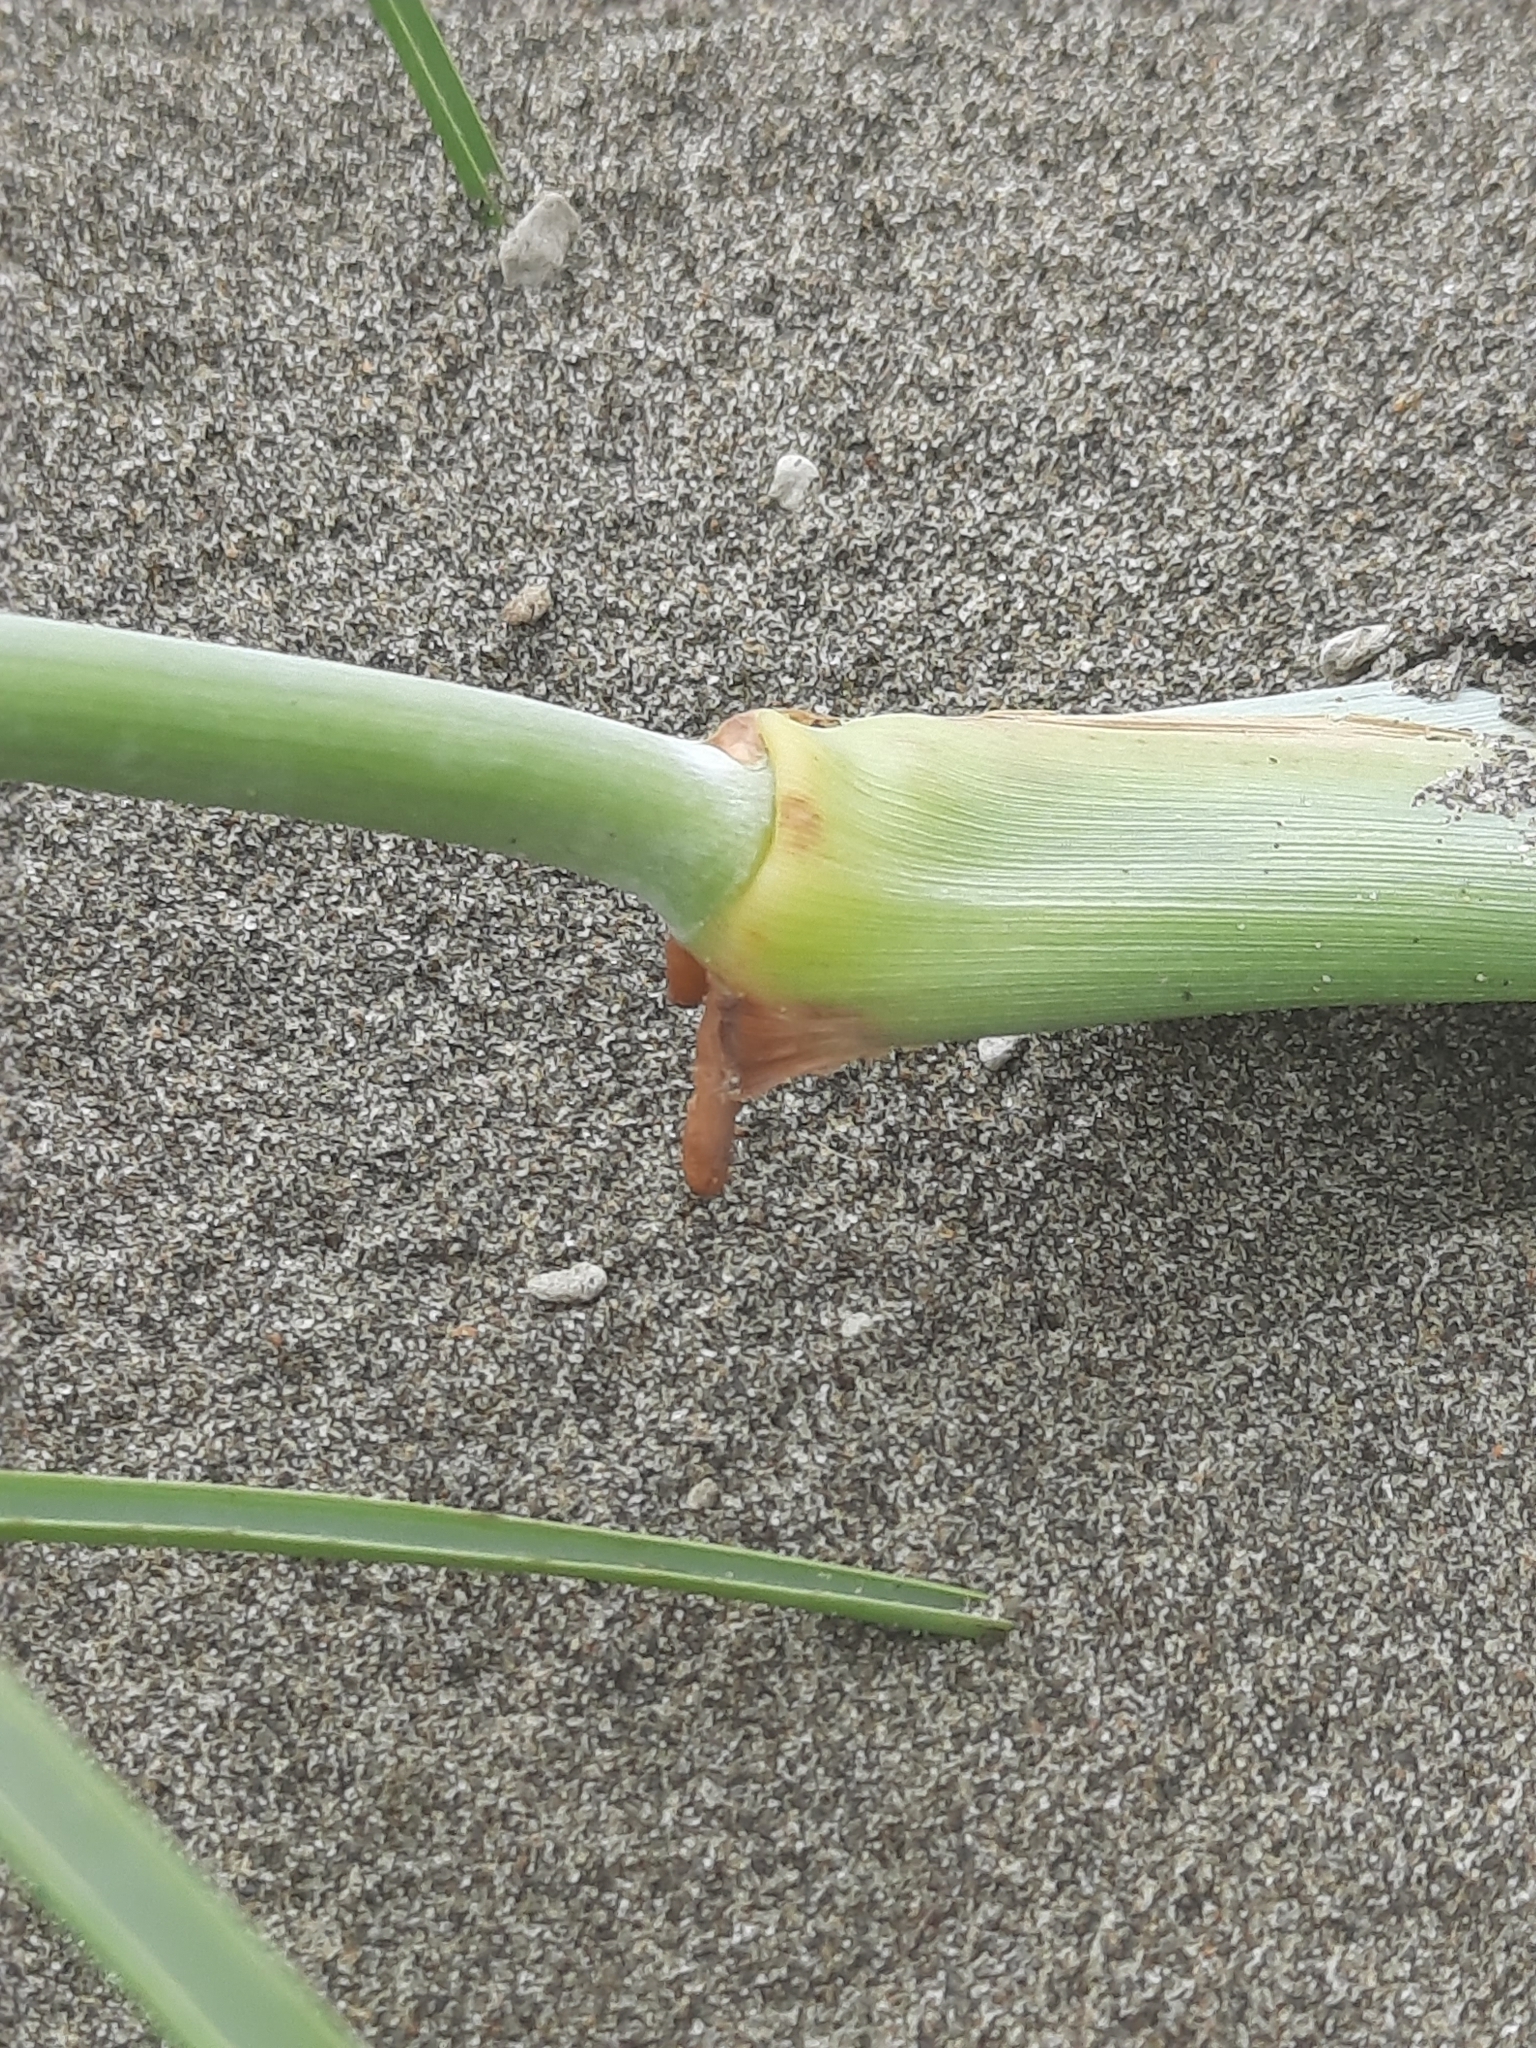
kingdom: Plantae
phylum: Tracheophyta
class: Liliopsida
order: Poales
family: Poaceae
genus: Spinifex
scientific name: Spinifex littoreus
